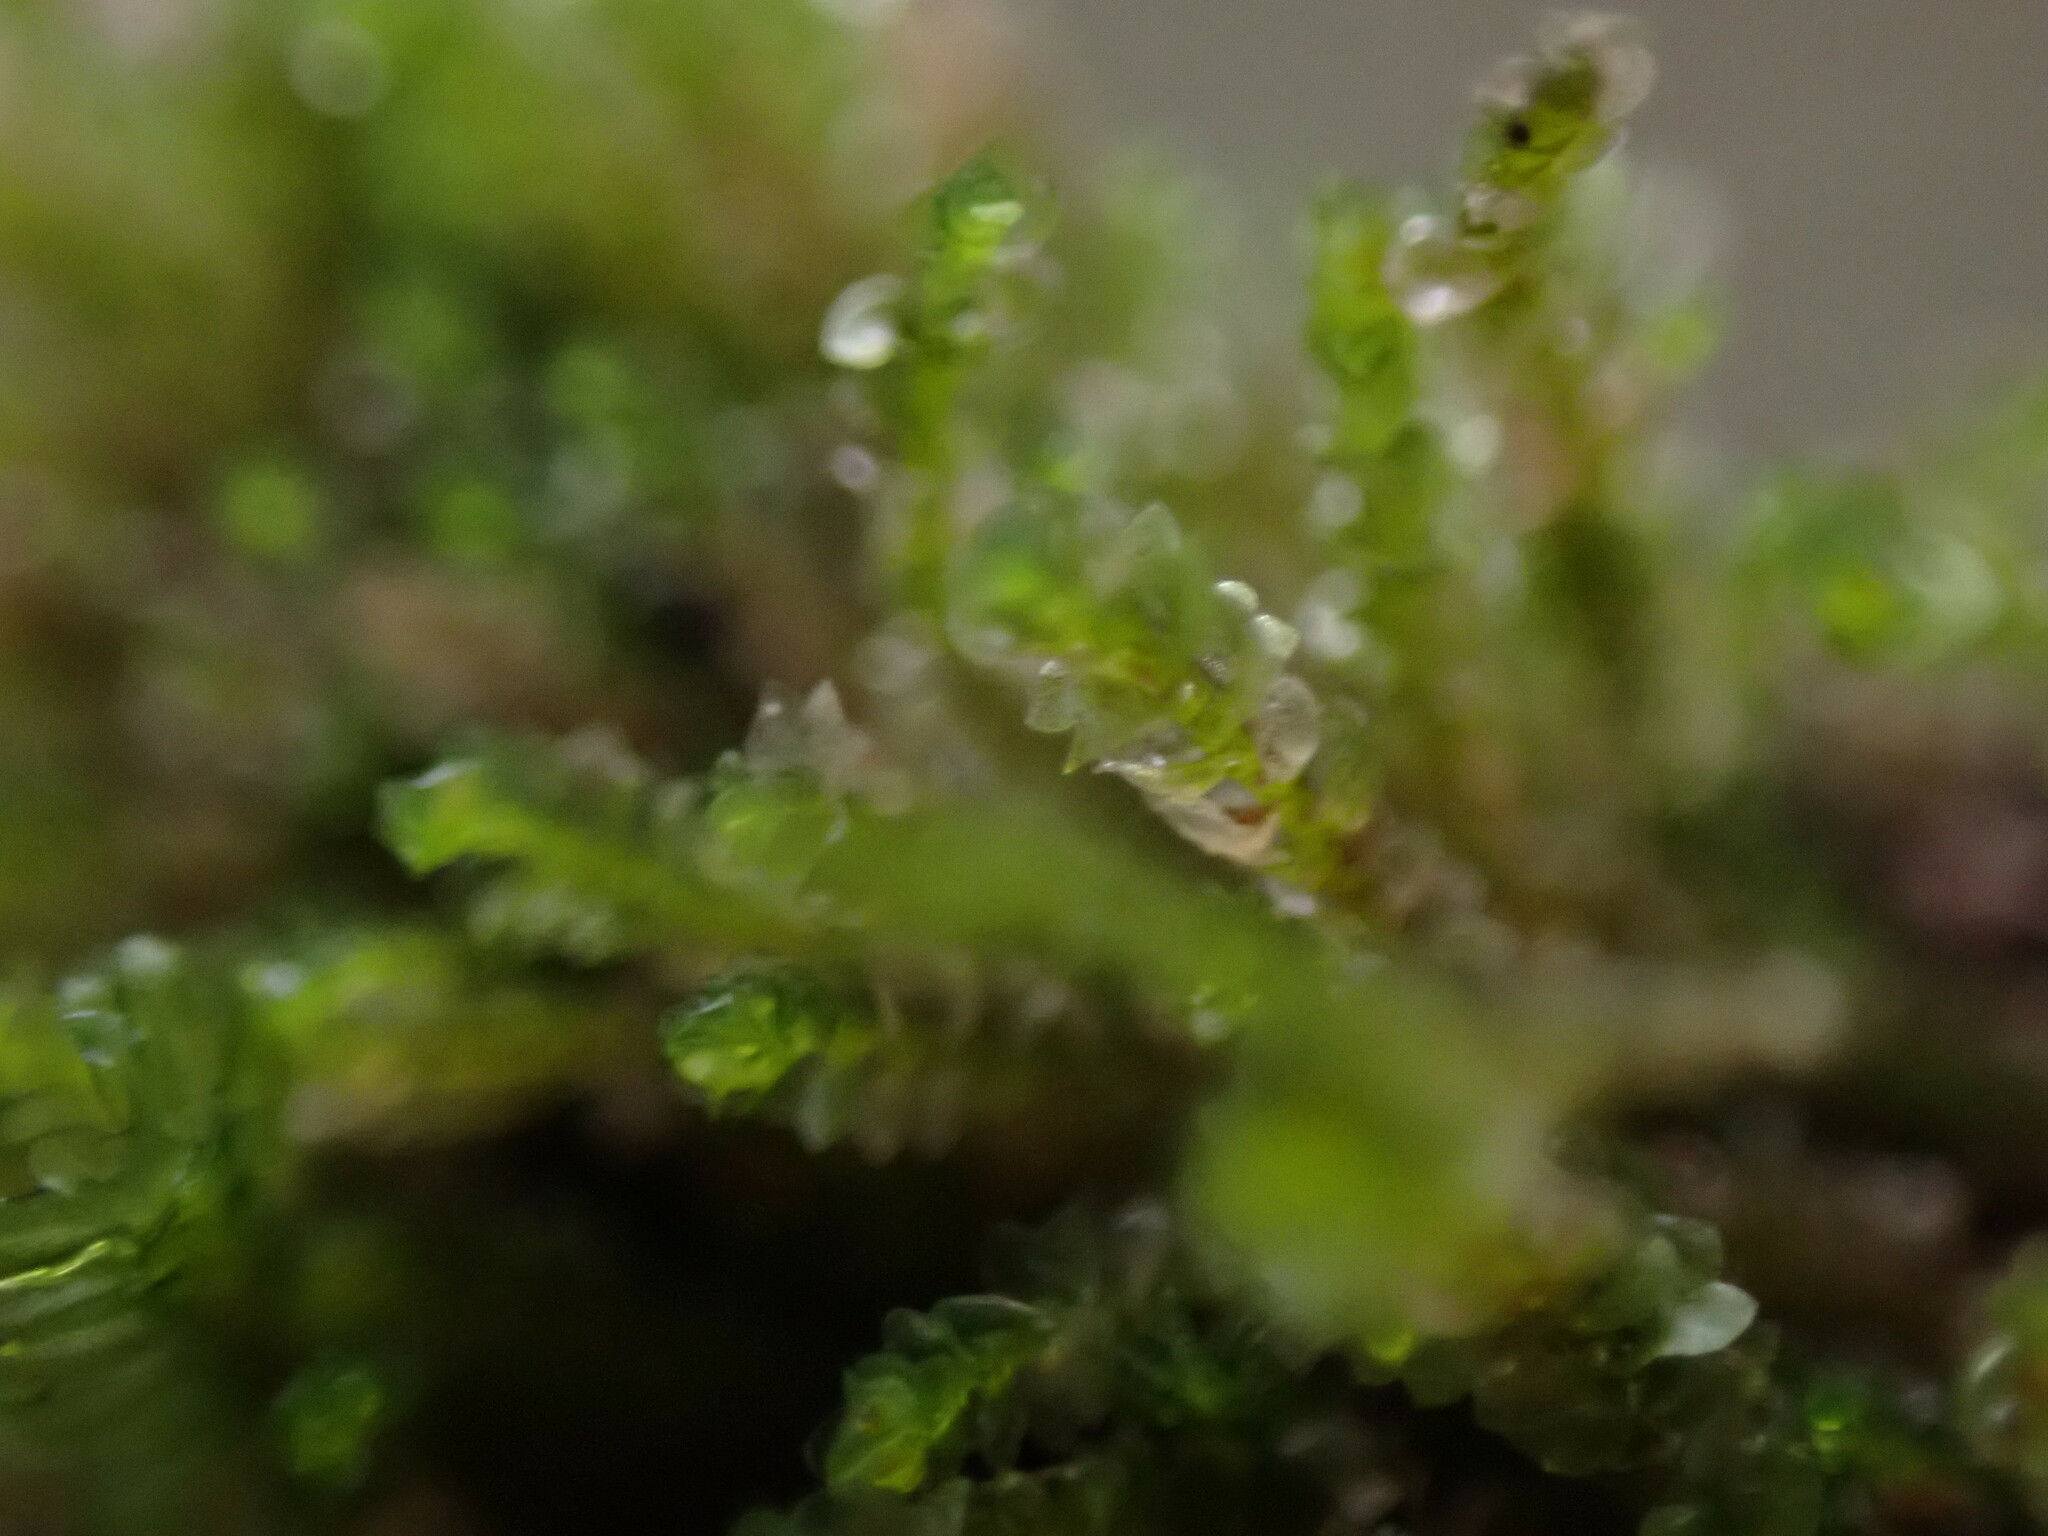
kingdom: Plantae
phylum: Marchantiophyta
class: Jungermanniopsida
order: Jungermanniales
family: Gymnomitriaceae
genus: Marsupella
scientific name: Marsupella emarginata
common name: Notched rustwort
